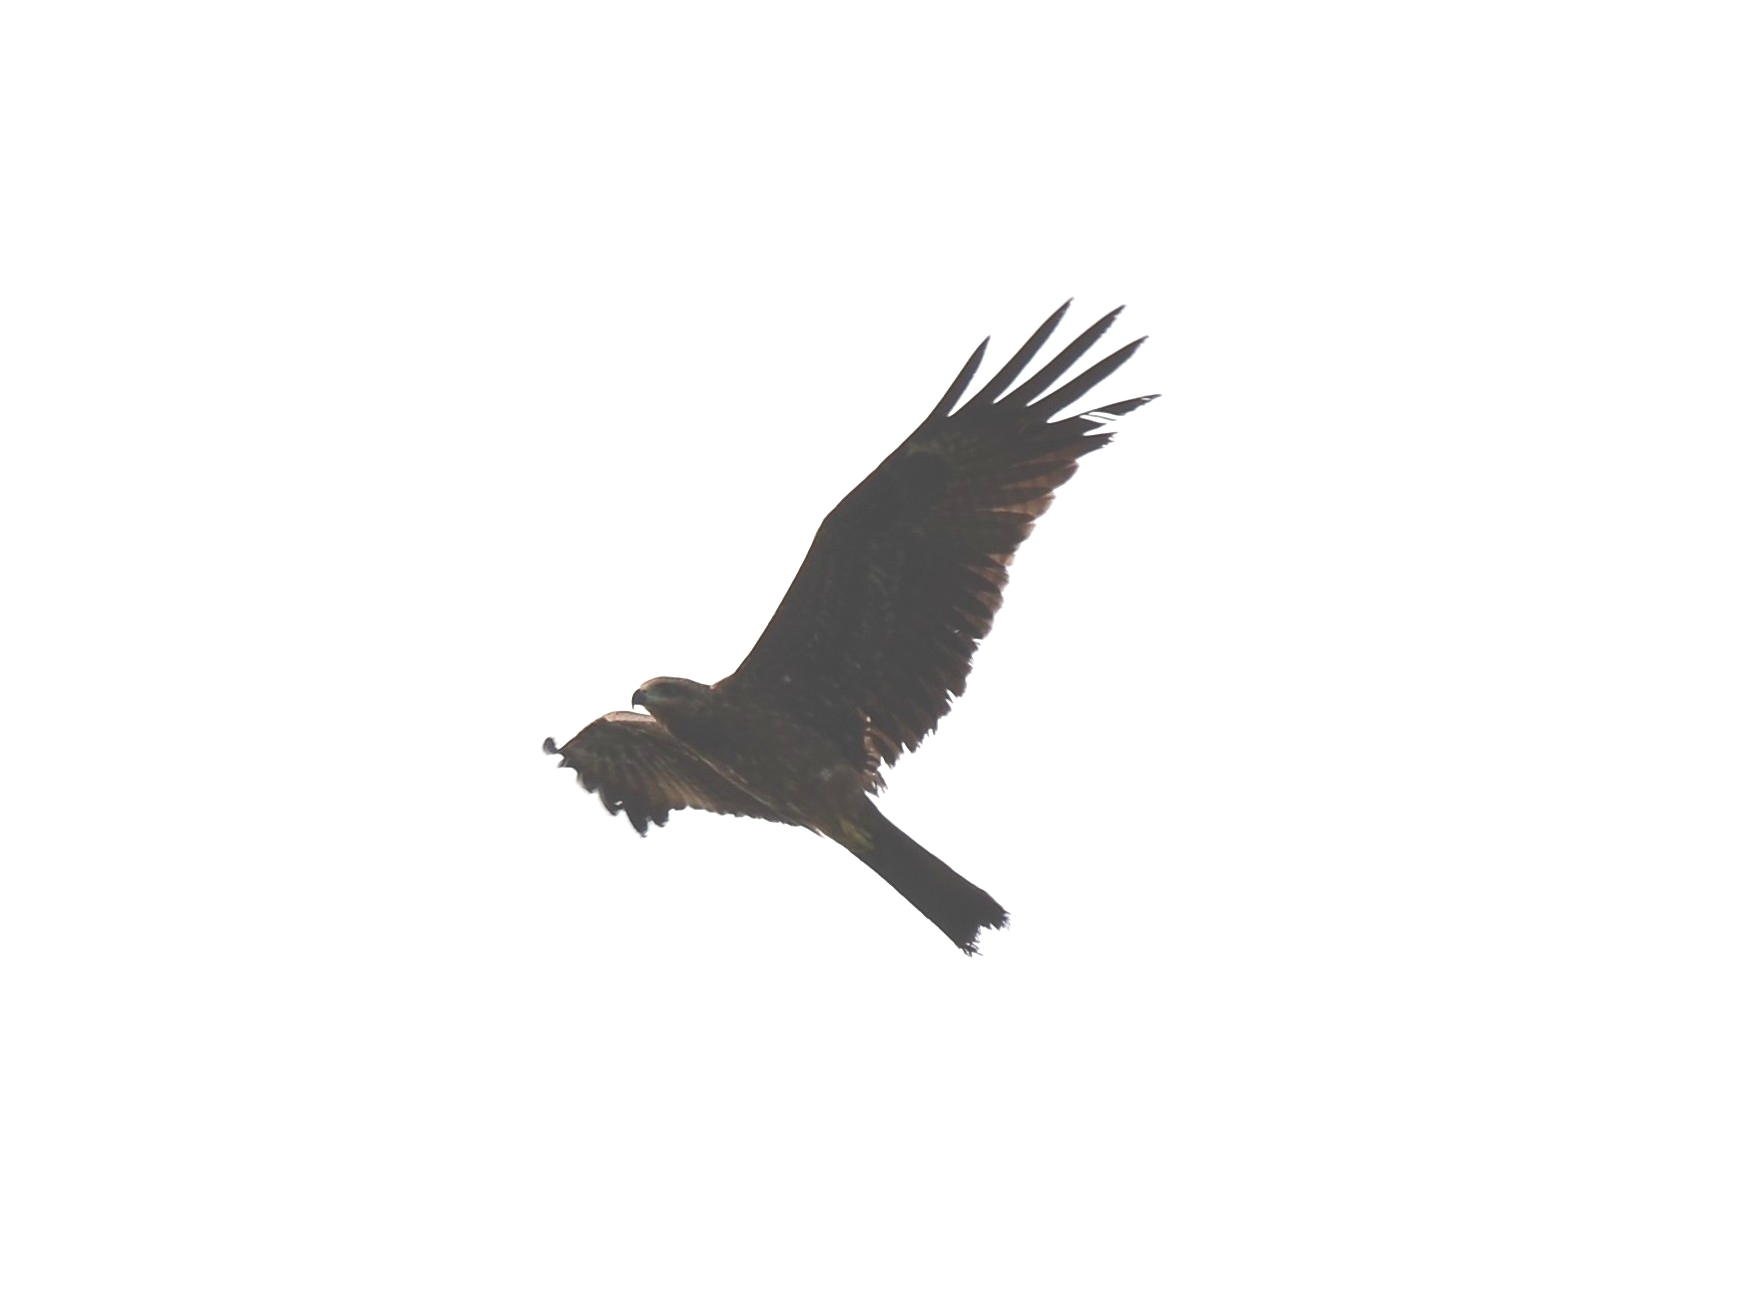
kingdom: Animalia
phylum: Chordata
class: Aves
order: Accipitriformes
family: Accipitridae
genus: Milvus
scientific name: Milvus migrans
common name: Black kite
